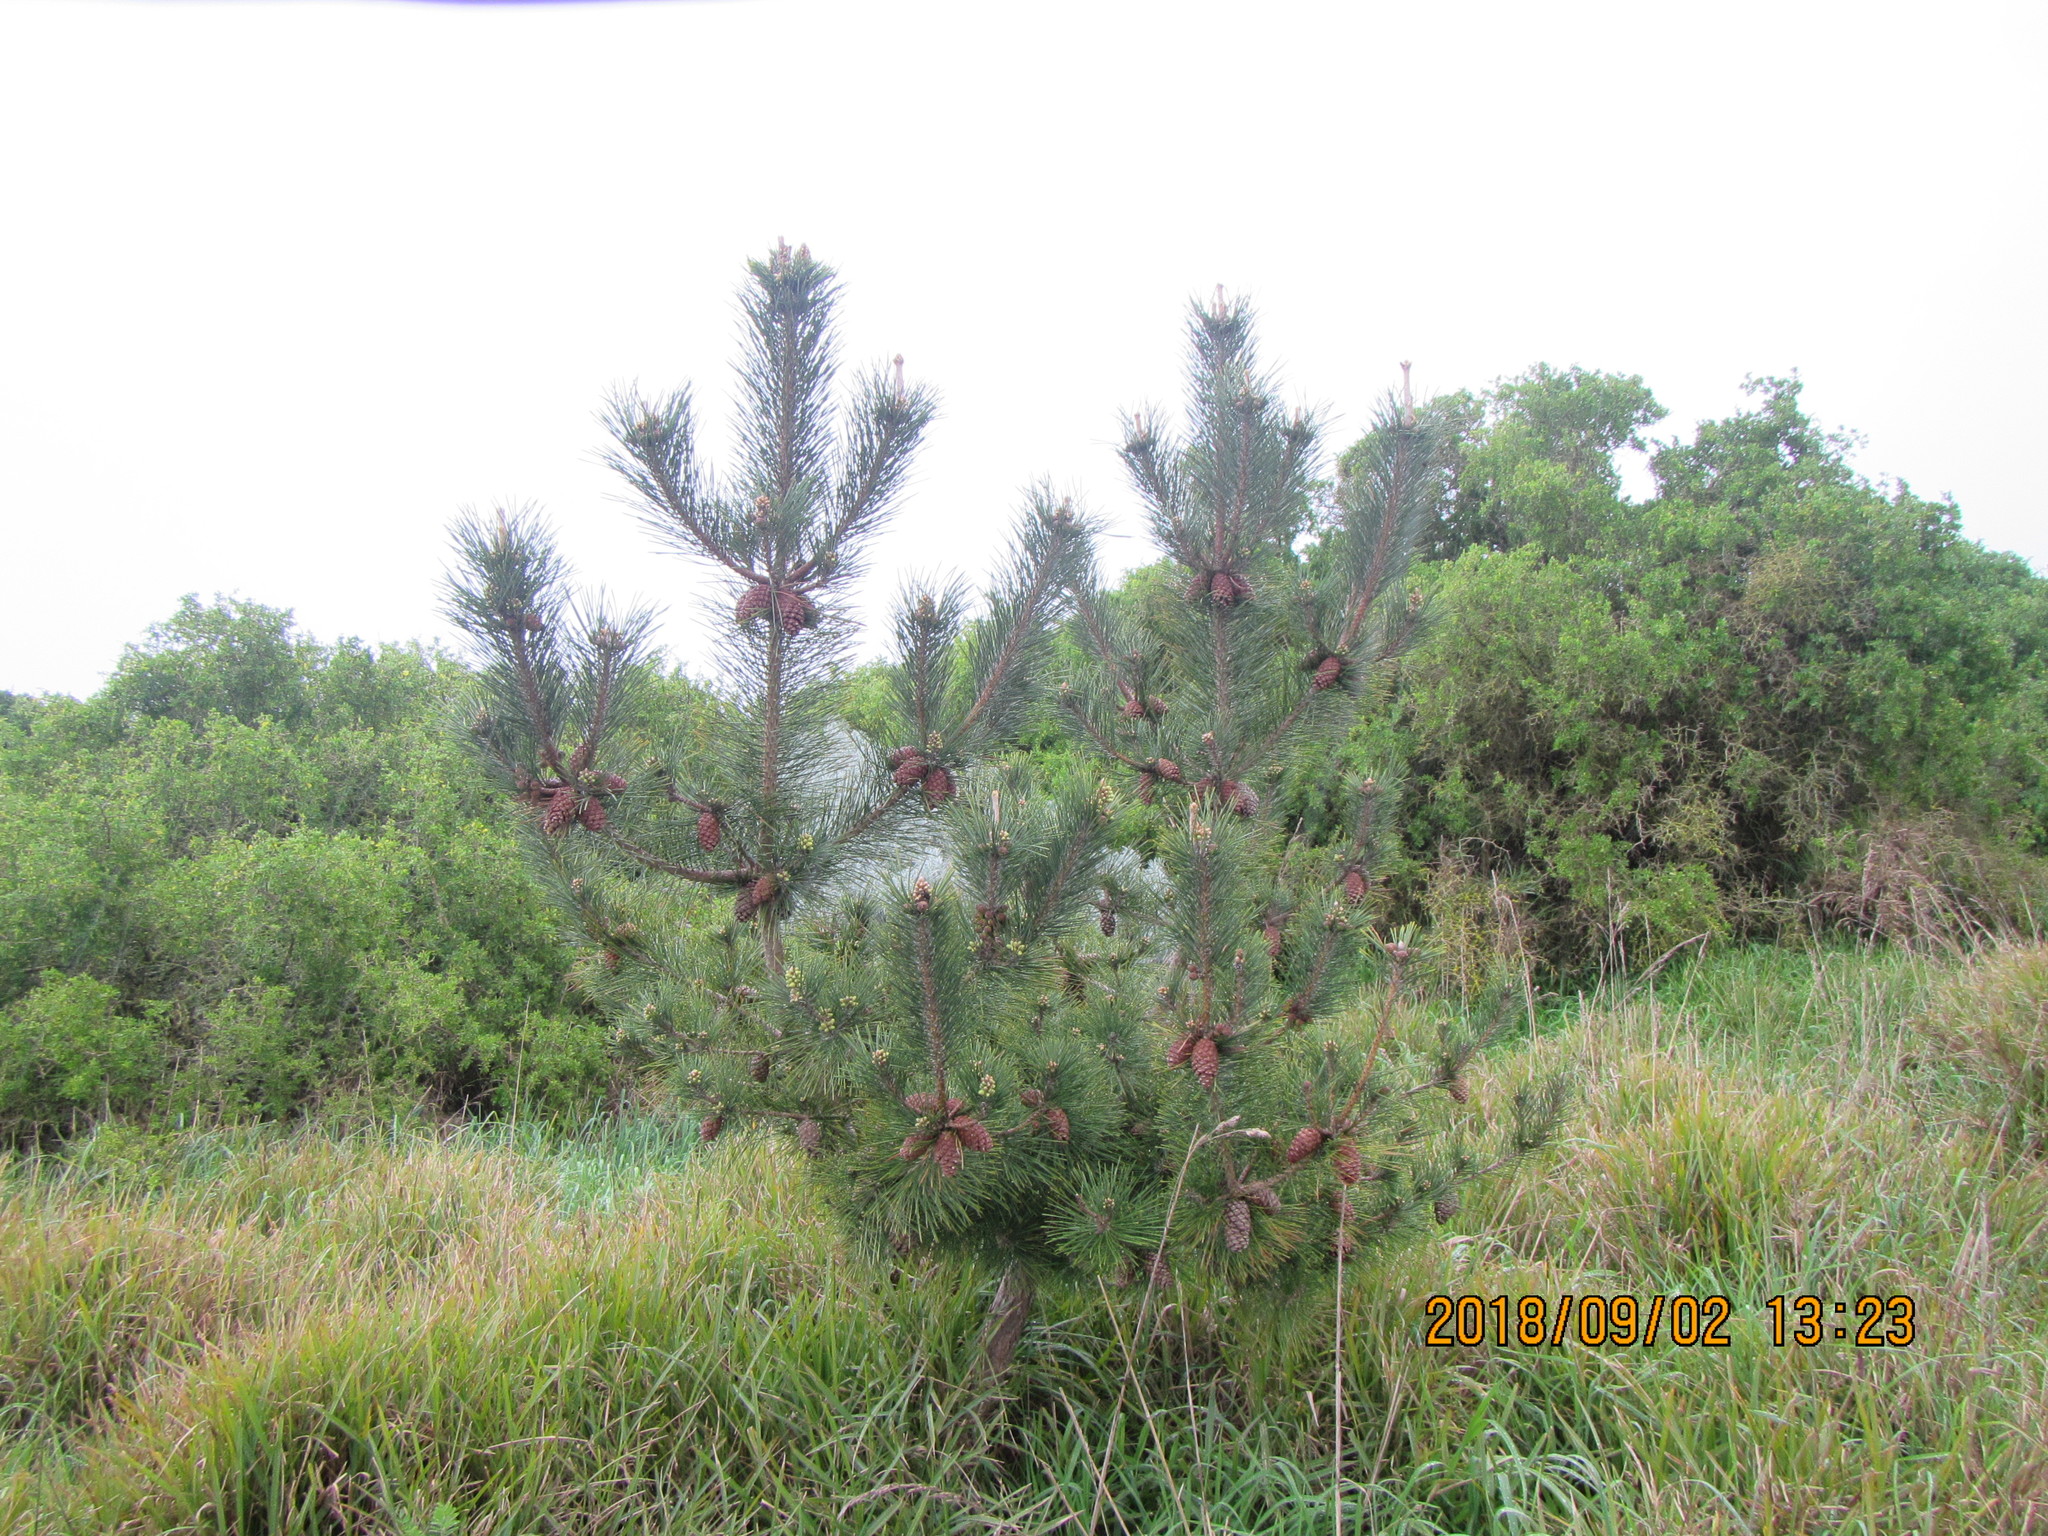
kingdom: Plantae
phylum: Tracheophyta
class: Pinopsida
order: Pinales
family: Pinaceae
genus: Pinus
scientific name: Pinus pinaster
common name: Maritime pine
